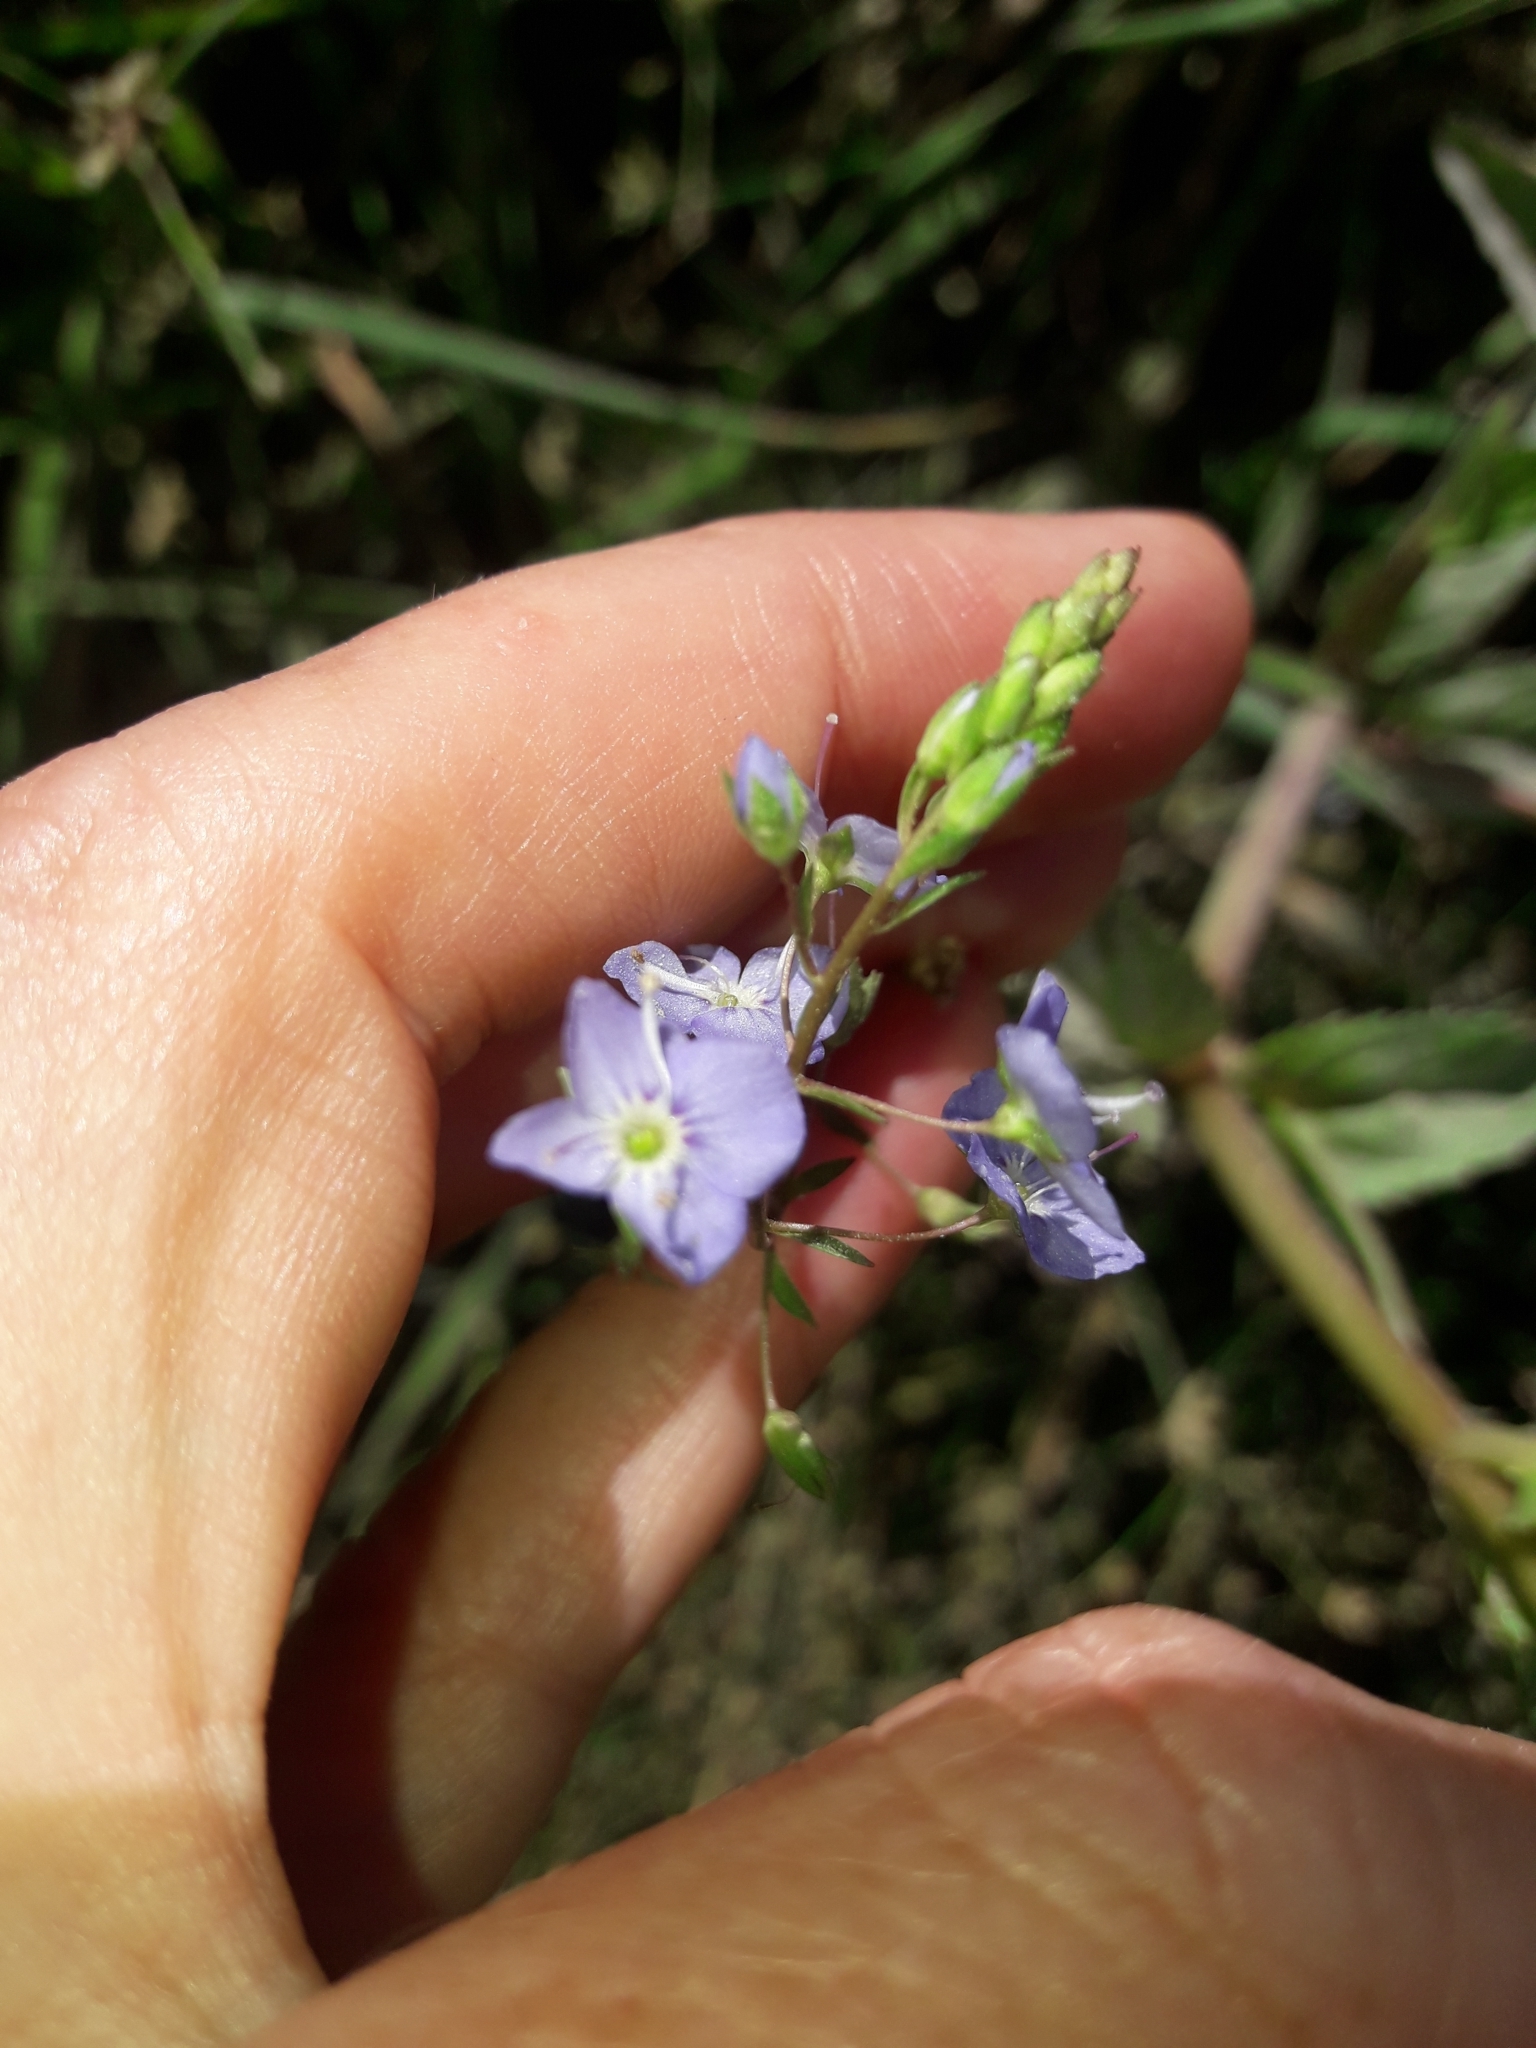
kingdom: Plantae
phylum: Tracheophyta
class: Magnoliopsida
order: Lamiales
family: Plantaginaceae
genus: Veronica
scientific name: Veronica anagallis-aquatica
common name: Water speedwell
